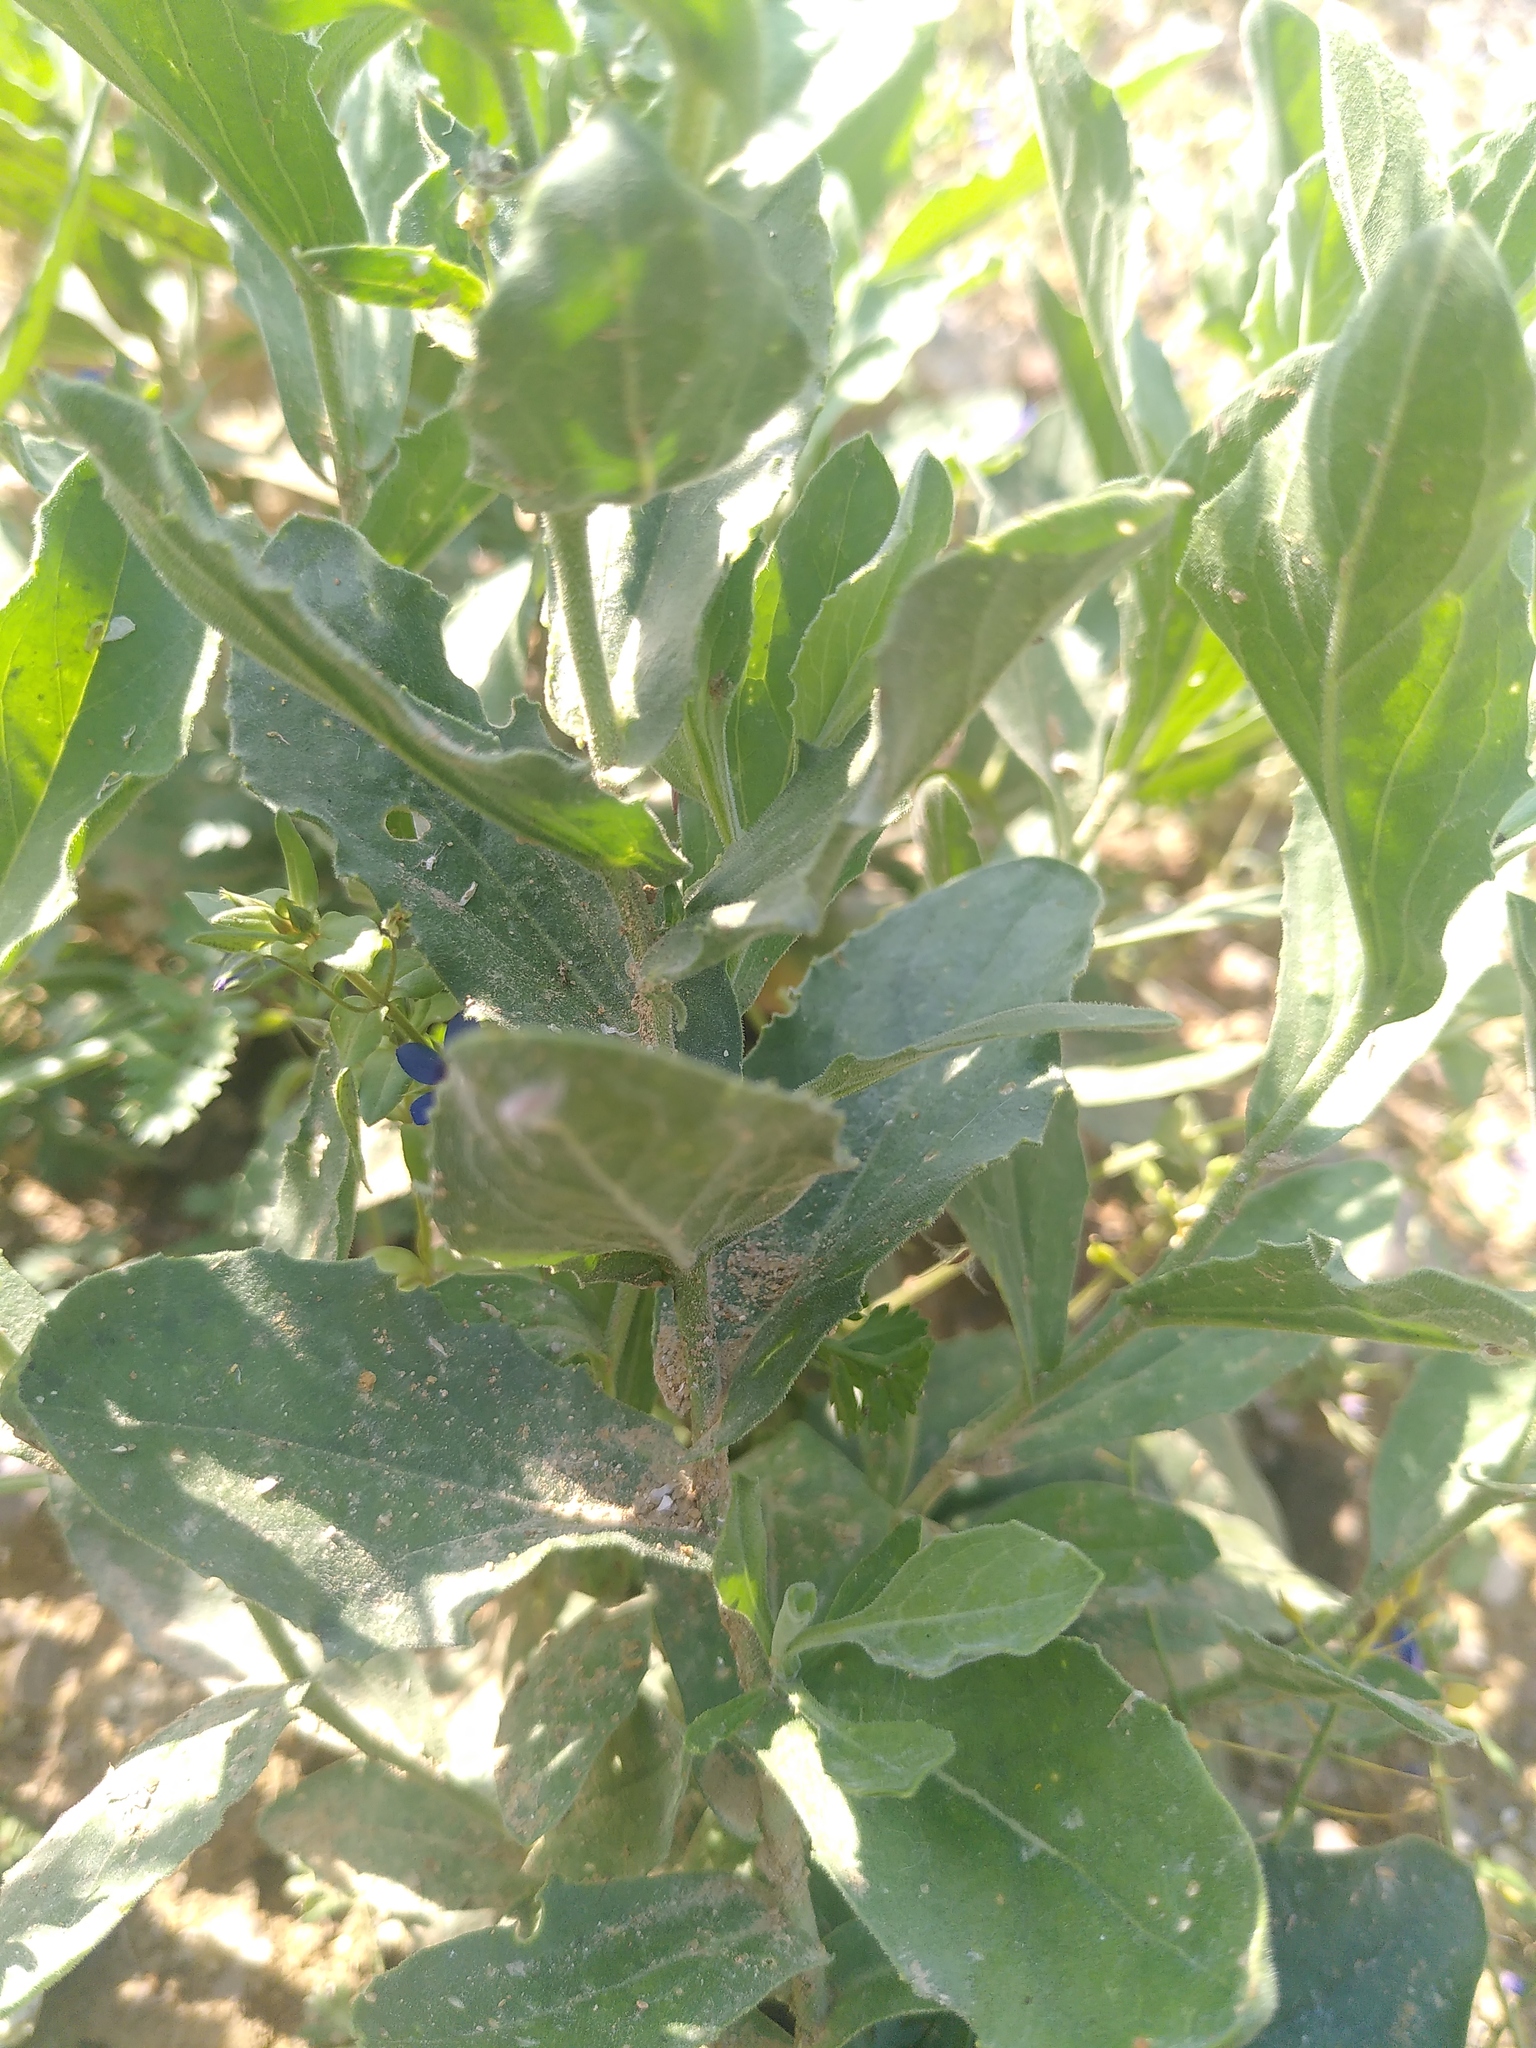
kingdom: Plantae
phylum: Tracheophyta
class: Magnoliopsida
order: Brassicales
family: Brassicaceae
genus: Lepidium
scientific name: Lepidium draba
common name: Hoary cress
